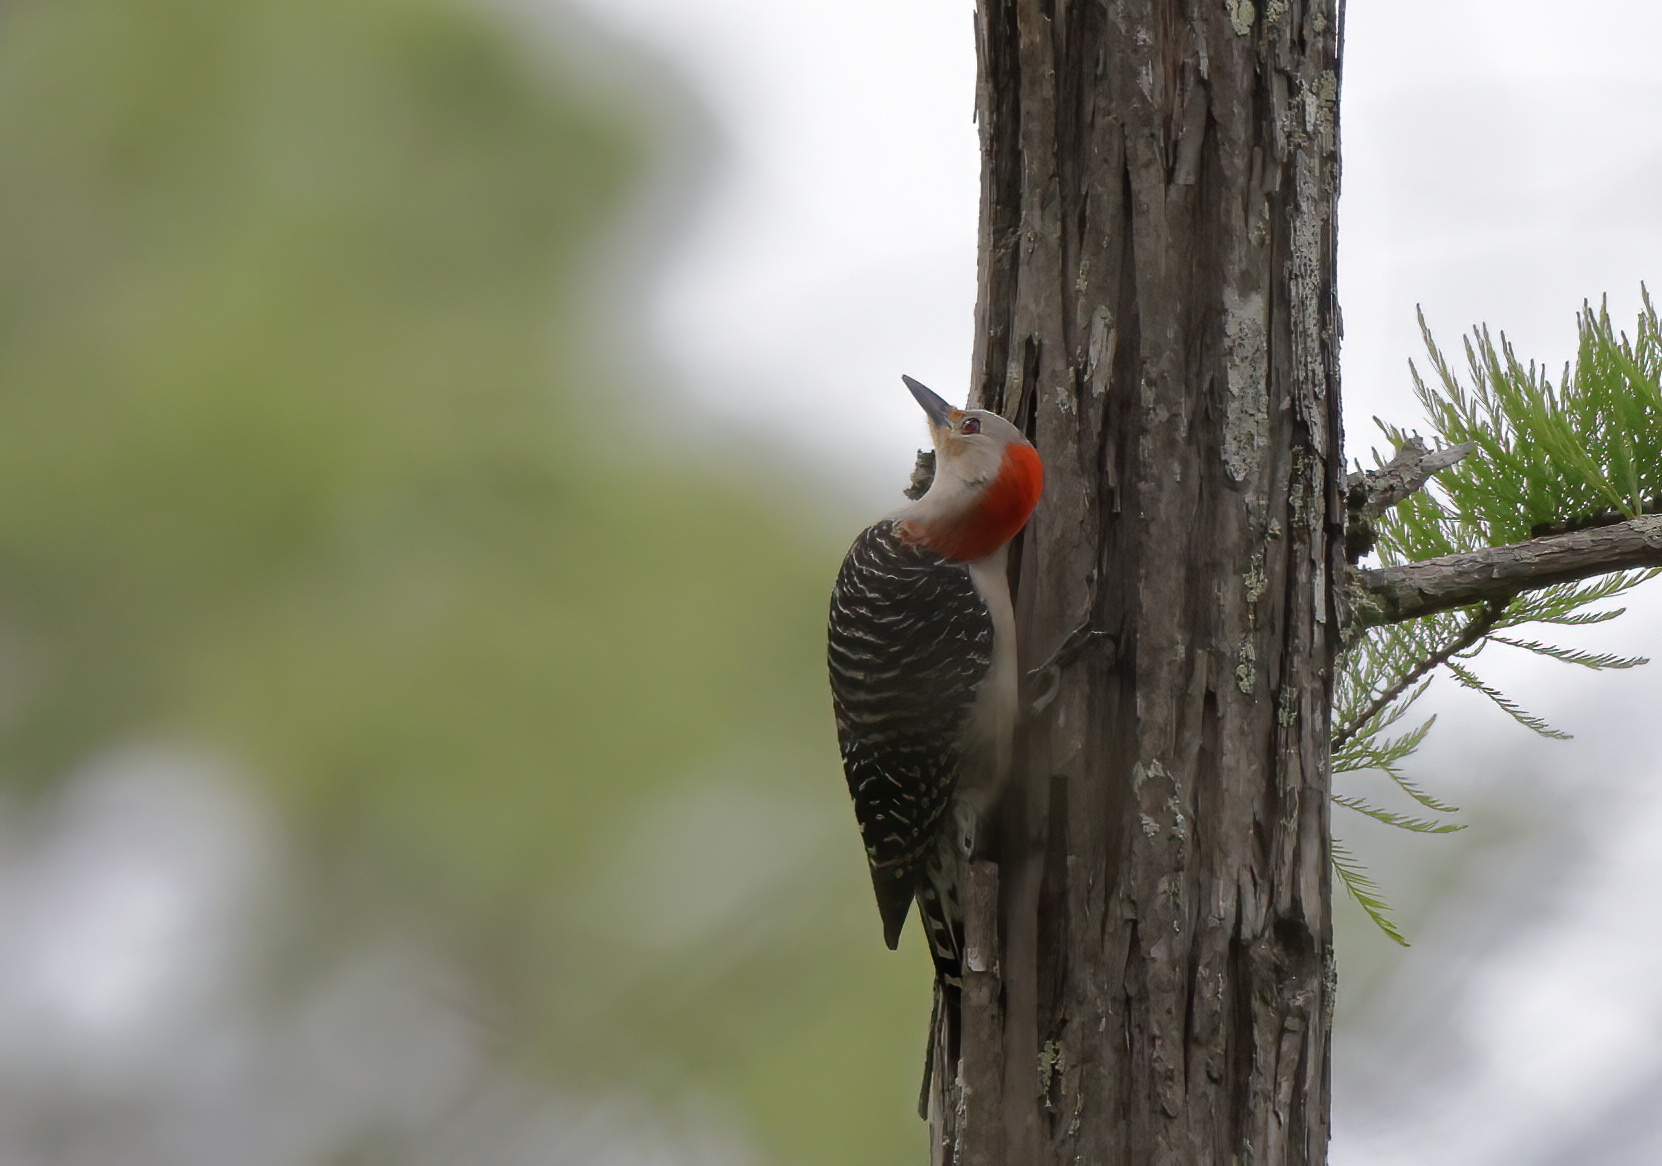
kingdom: Animalia
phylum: Chordata
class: Aves
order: Piciformes
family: Picidae
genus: Melanerpes
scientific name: Melanerpes carolinus
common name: Red-bellied woodpecker
